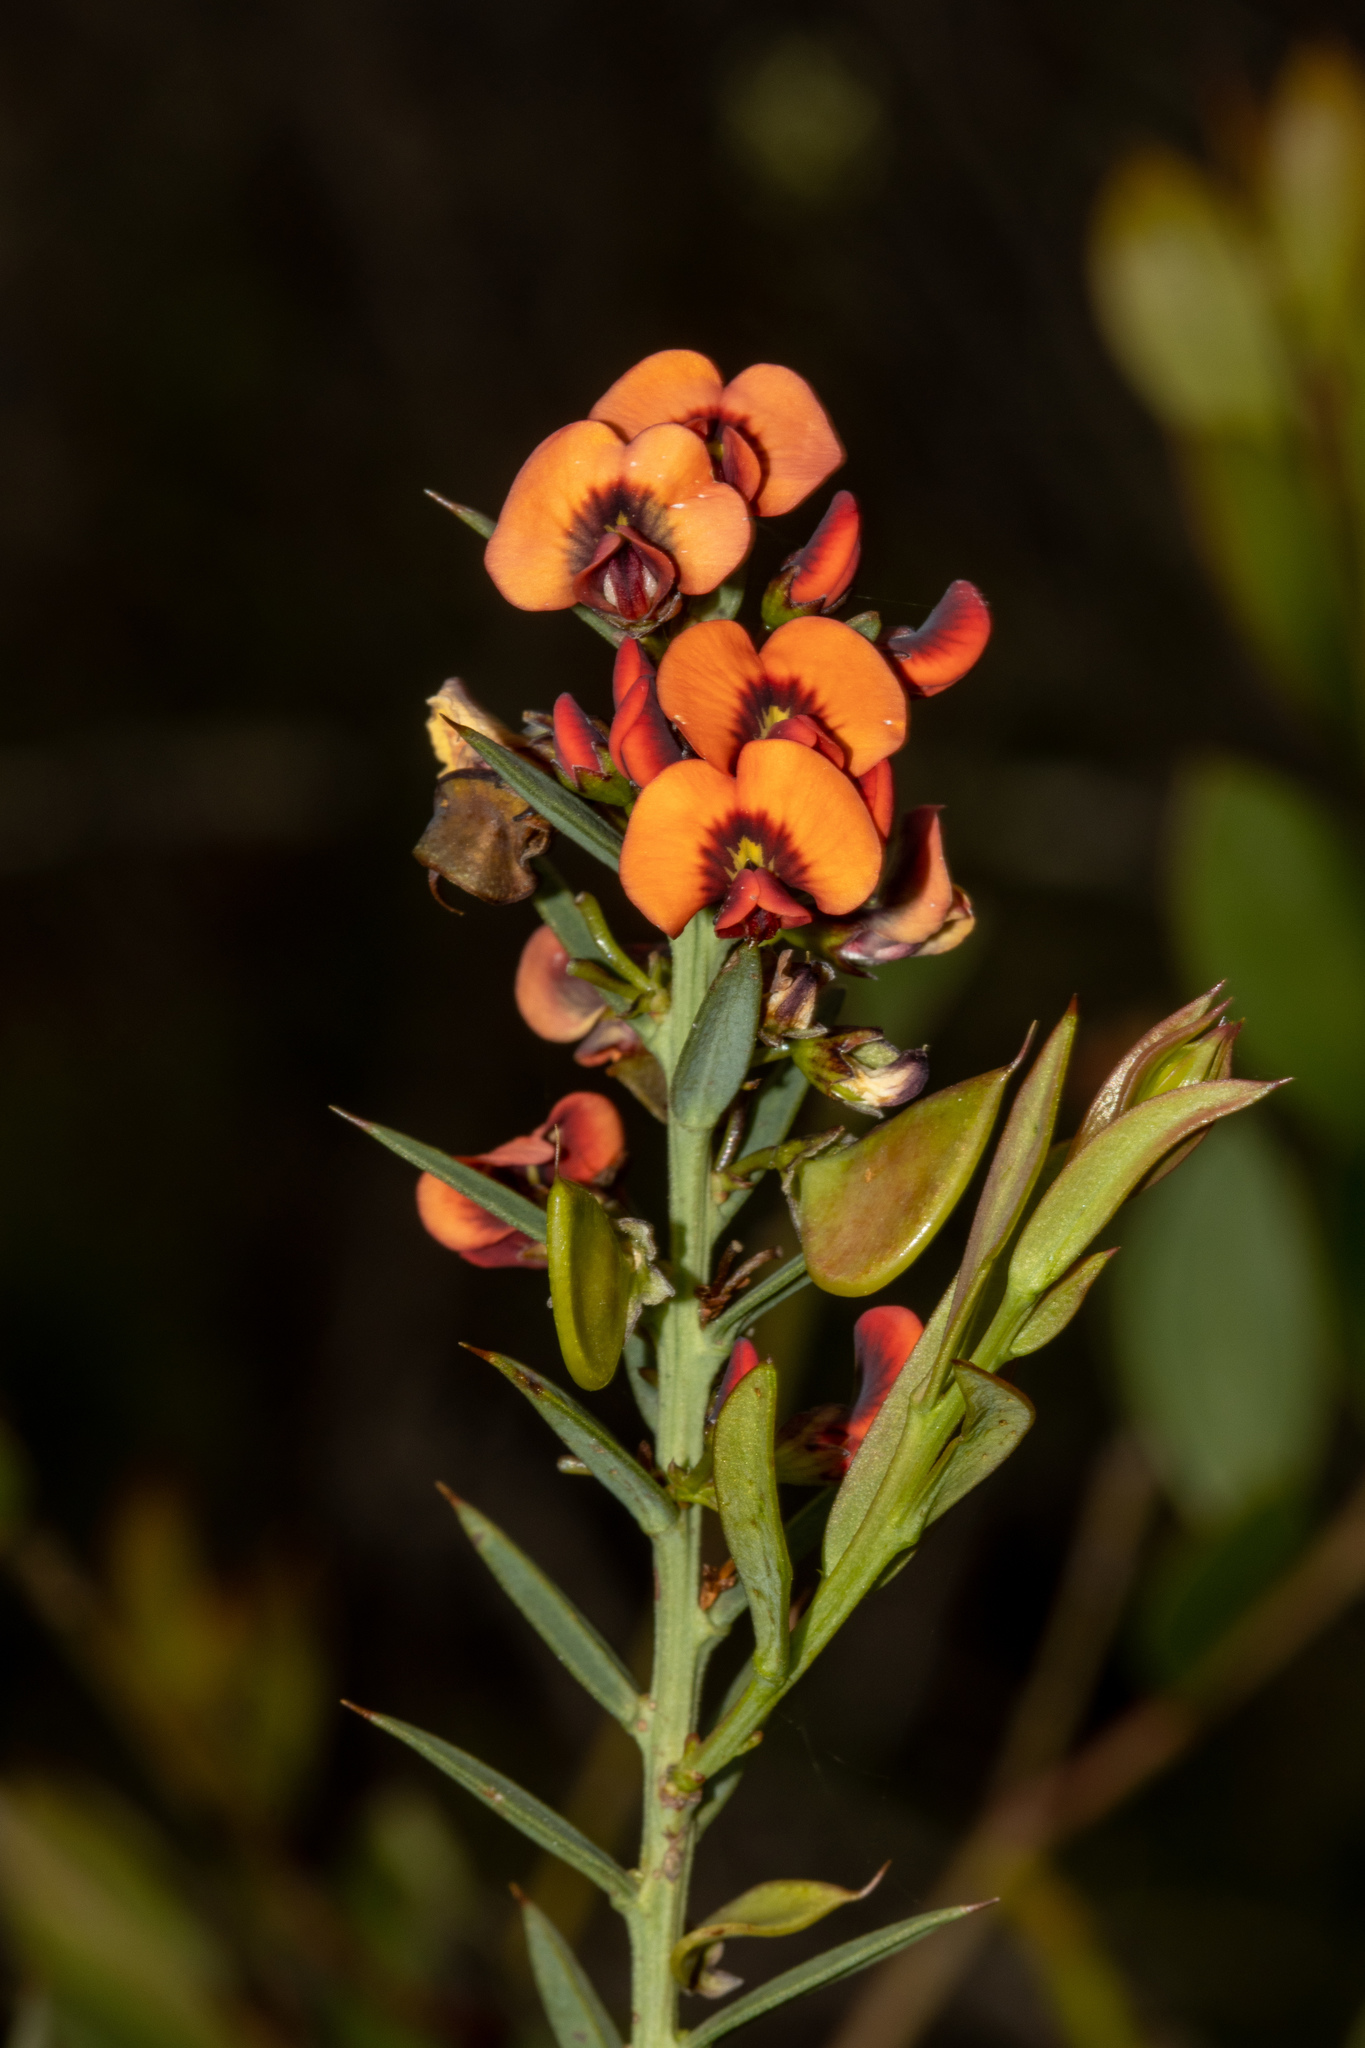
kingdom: Plantae
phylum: Tracheophyta
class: Magnoliopsida
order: Fabales
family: Fabaceae
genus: Daviesia
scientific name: Daviesia ulicifolia
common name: Gorse bitter-pea
